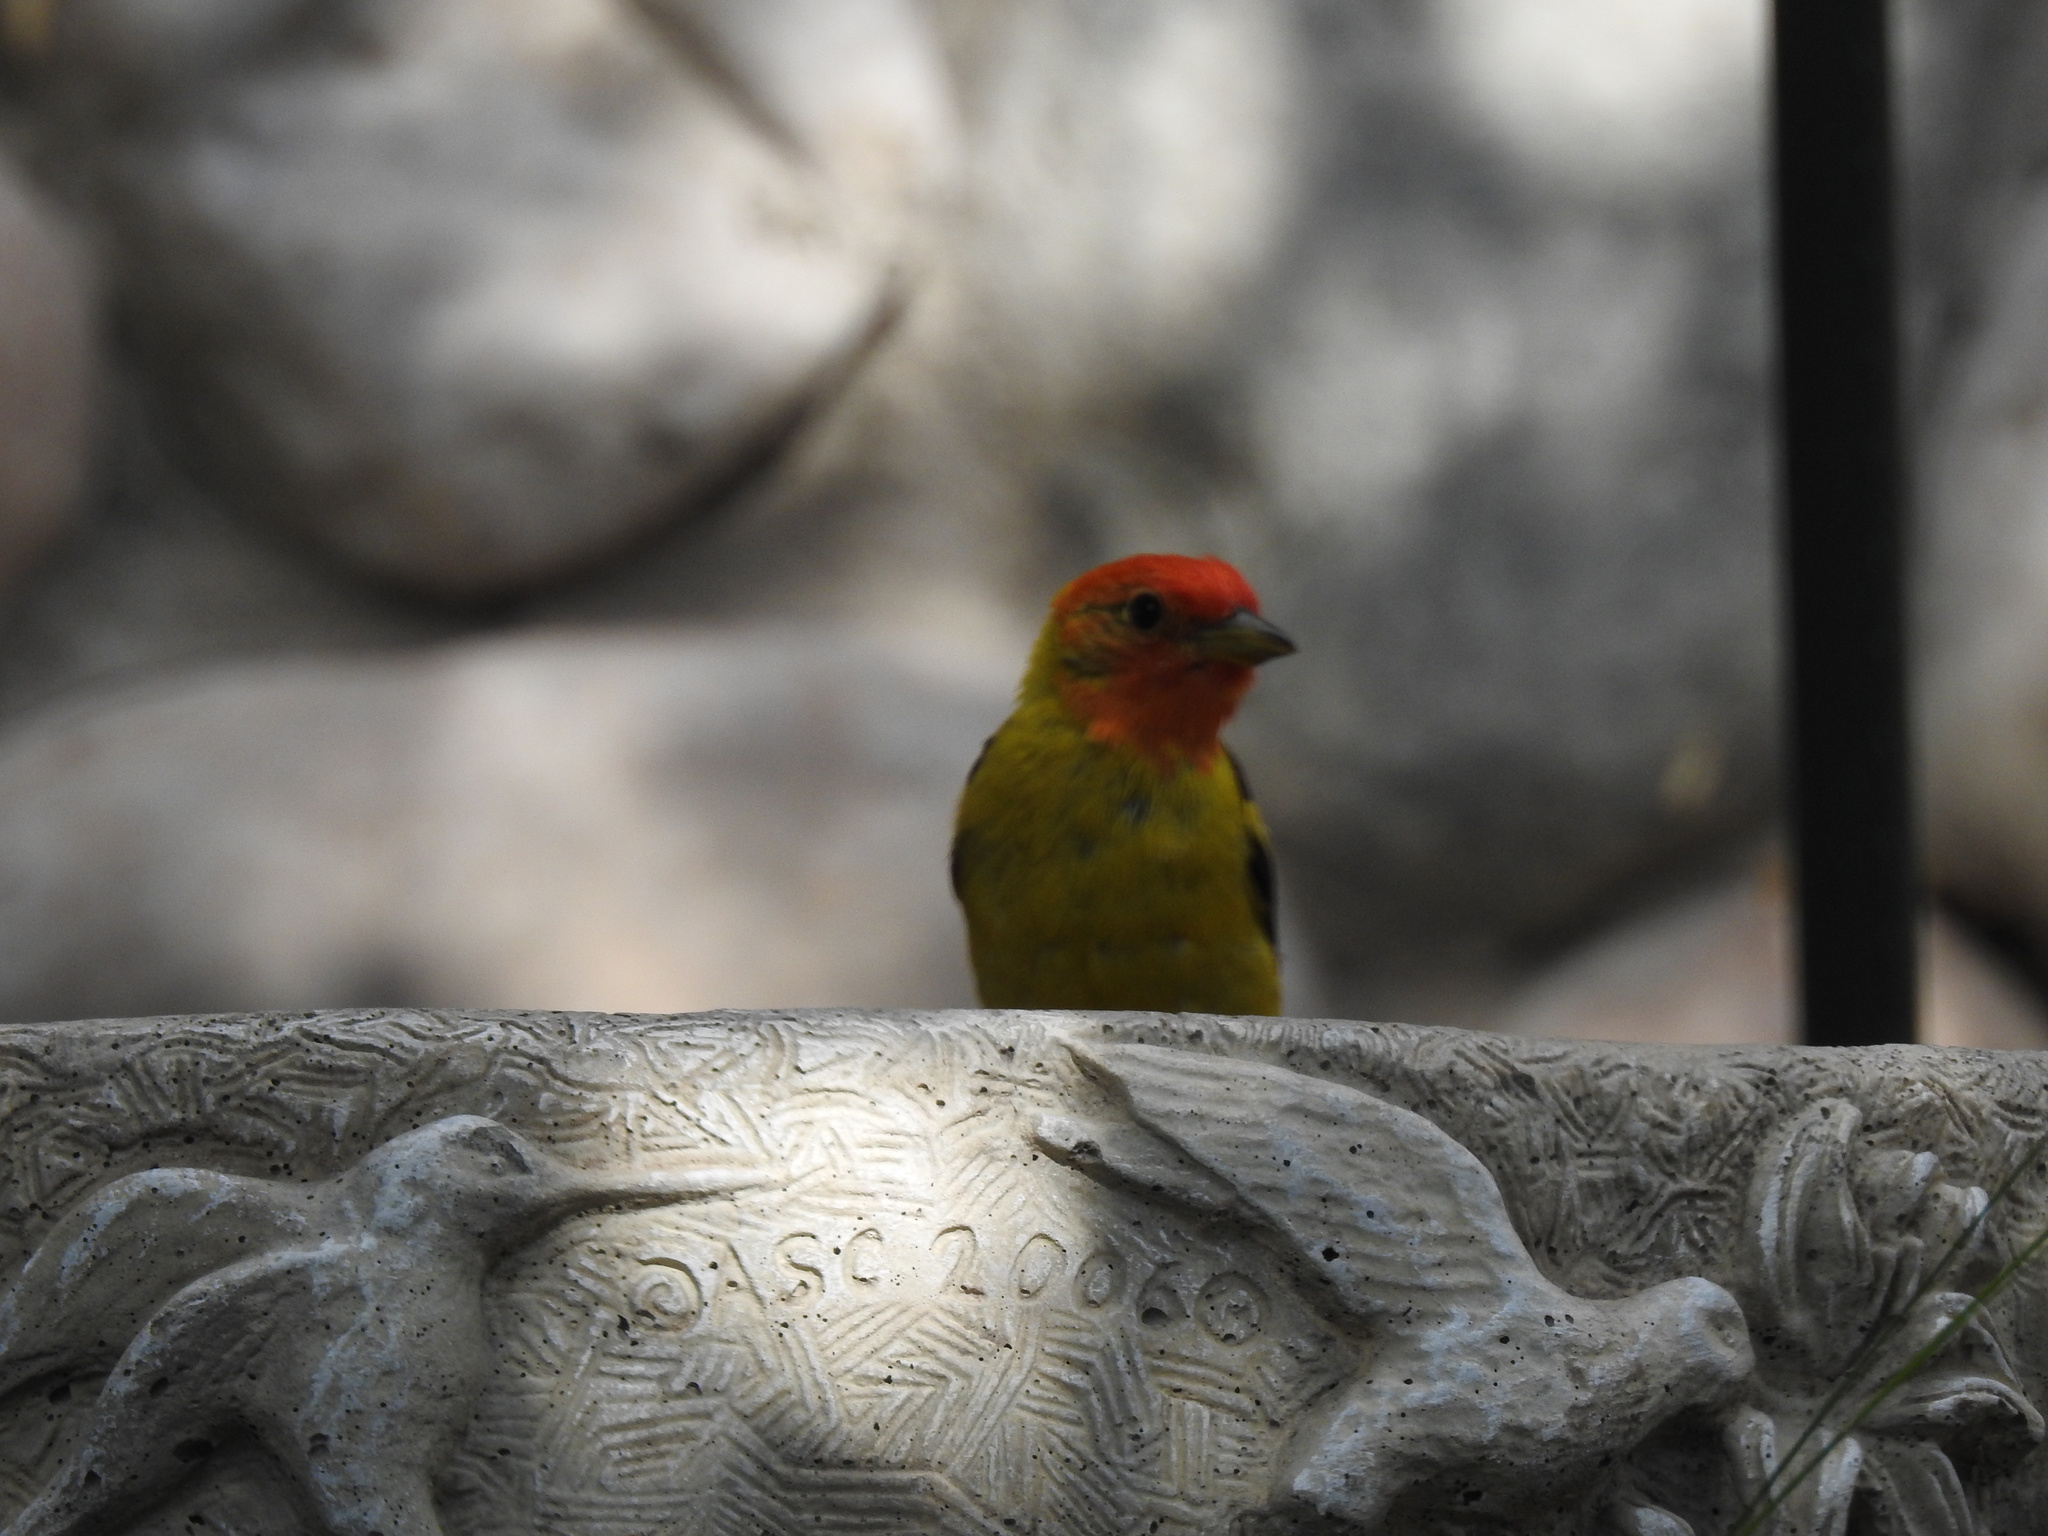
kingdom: Animalia
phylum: Chordata
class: Aves
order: Passeriformes
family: Cardinalidae
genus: Piranga
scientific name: Piranga ludoviciana
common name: Western tanager
